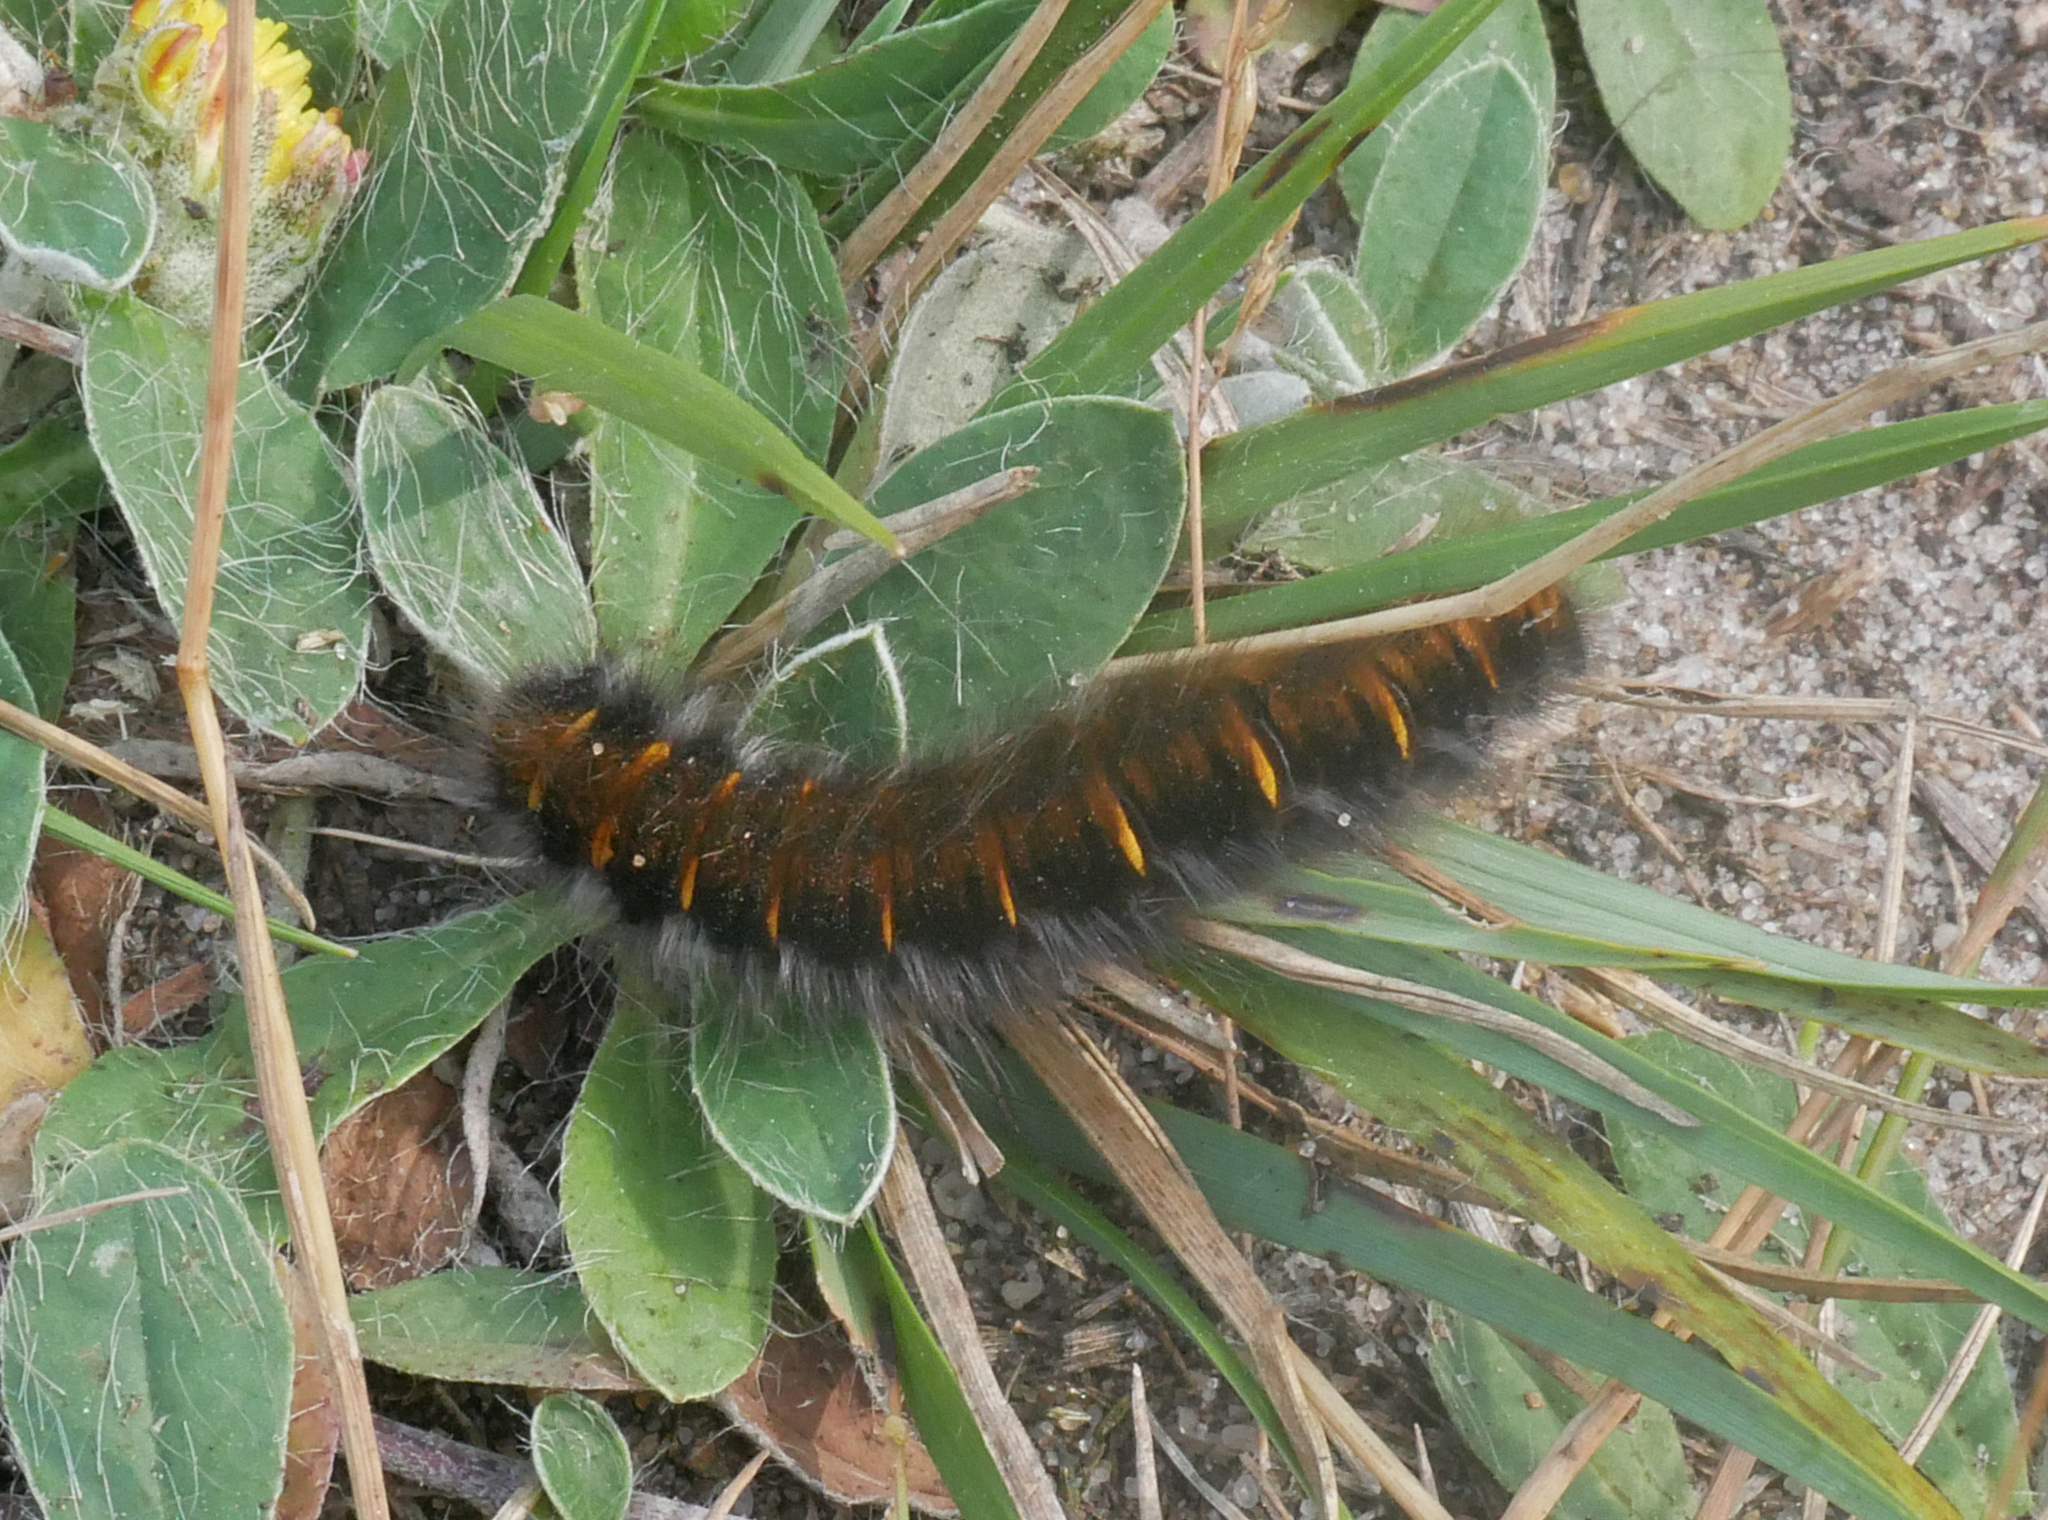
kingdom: Animalia
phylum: Arthropoda
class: Insecta
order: Lepidoptera
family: Lasiocampidae
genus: Macrothylacia
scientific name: Macrothylacia rubi
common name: Fox moth
